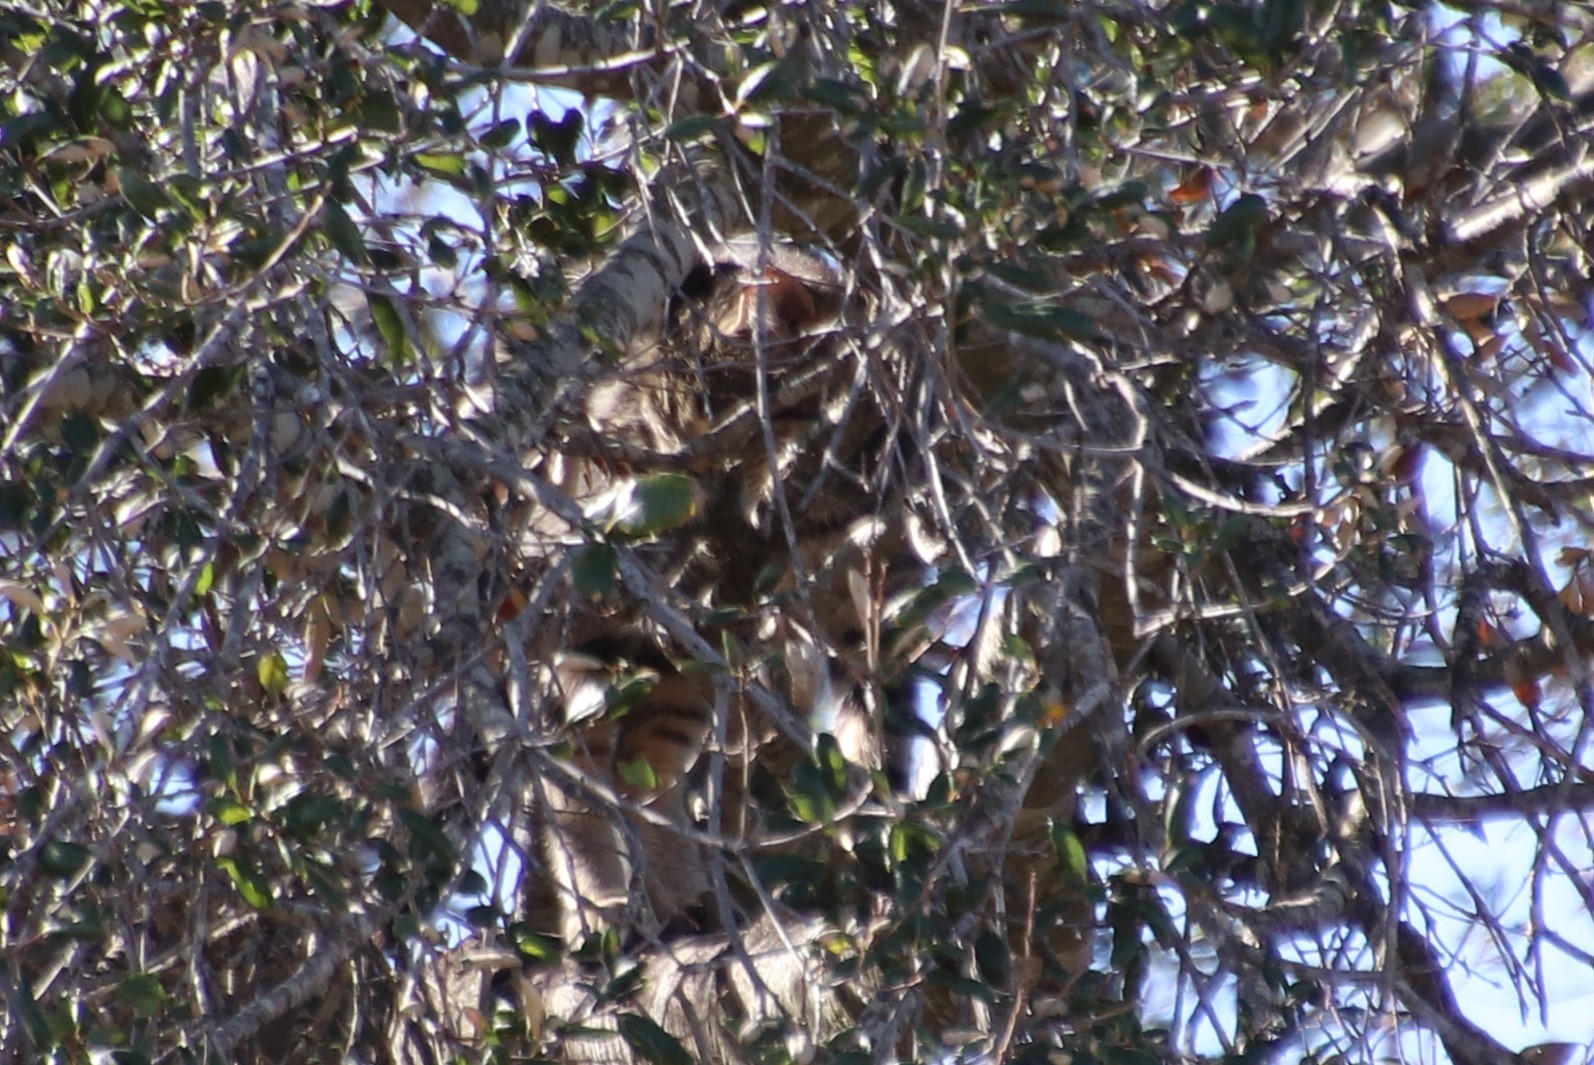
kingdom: Animalia
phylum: Chordata
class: Mammalia
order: Carnivora
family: Felidae
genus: Felis
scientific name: Felis catus
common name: Domestic cat
